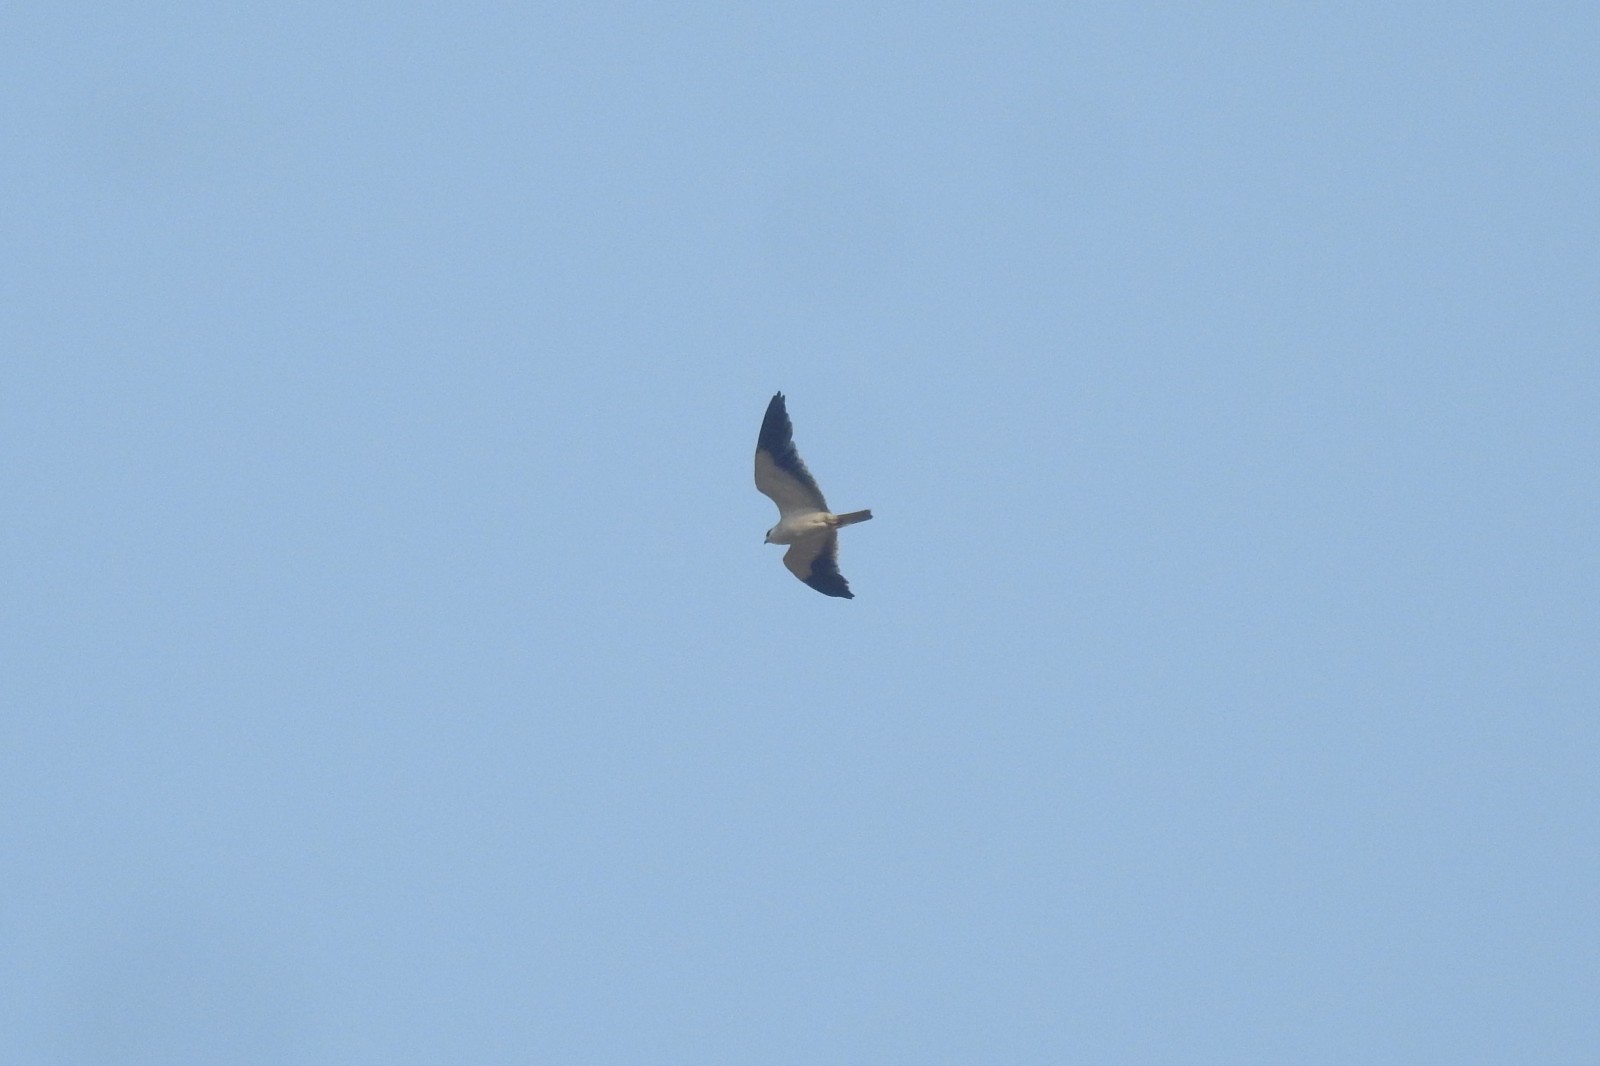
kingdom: Animalia
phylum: Chordata
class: Aves
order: Accipitriformes
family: Accipitridae
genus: Elanus
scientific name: Elanus caeruleus
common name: Black-winged kite
